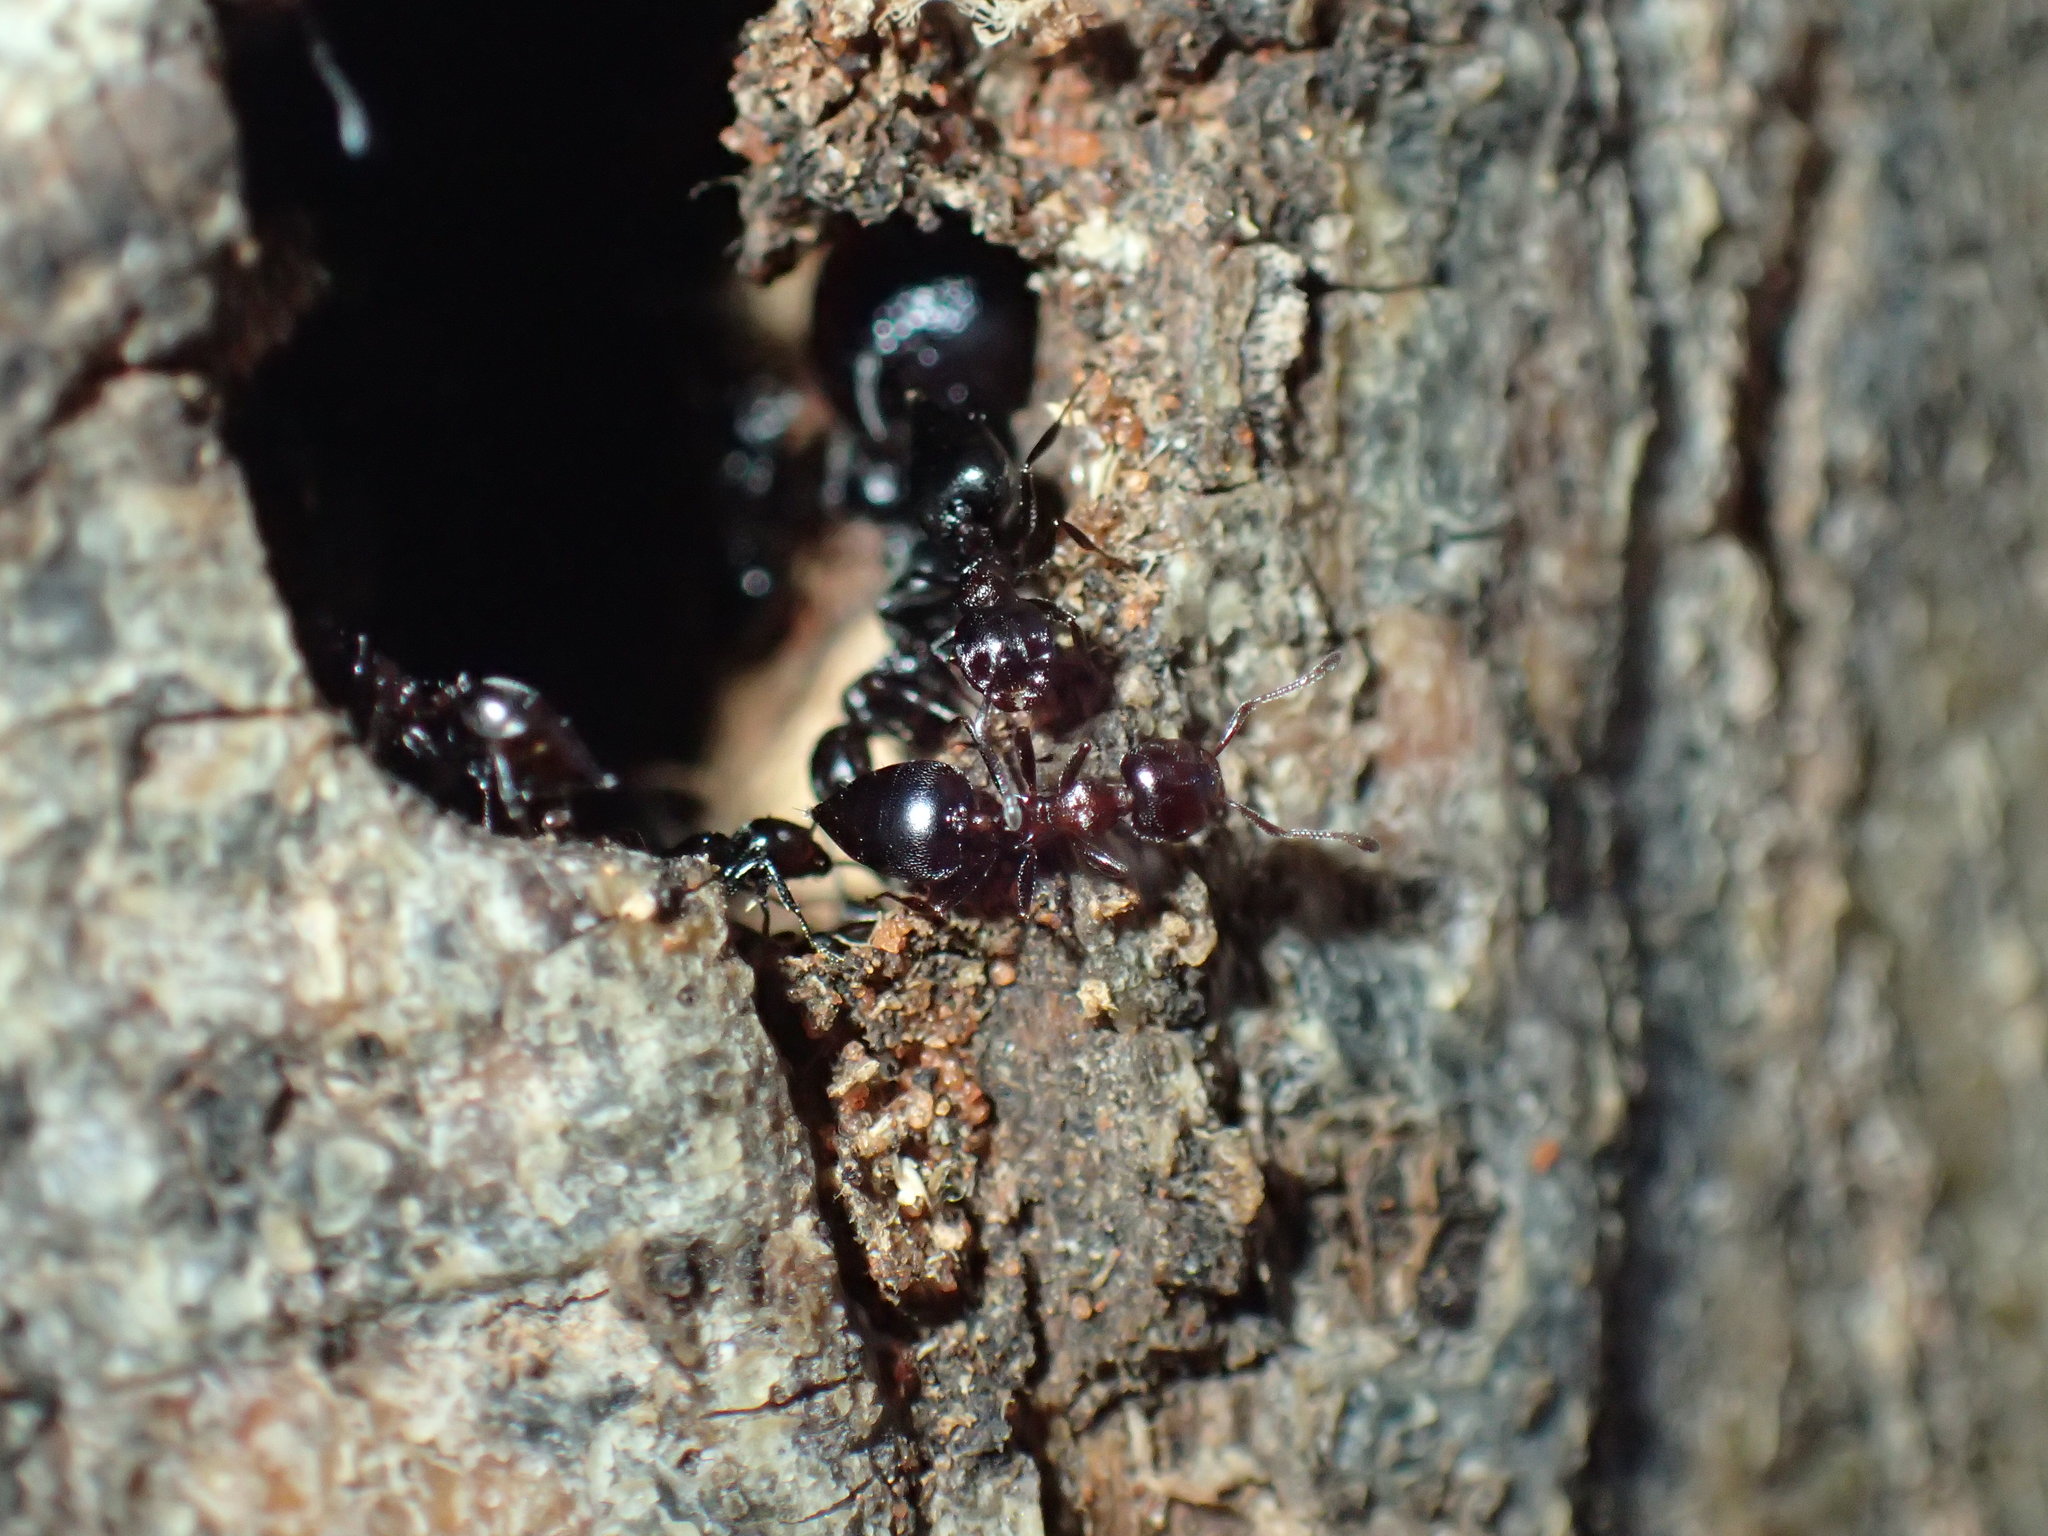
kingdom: Animalia
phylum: Arthropoda
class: Insecta
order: Hymenoptera
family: Formicidae
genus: Crematogaster
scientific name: Crematogaster kneri
